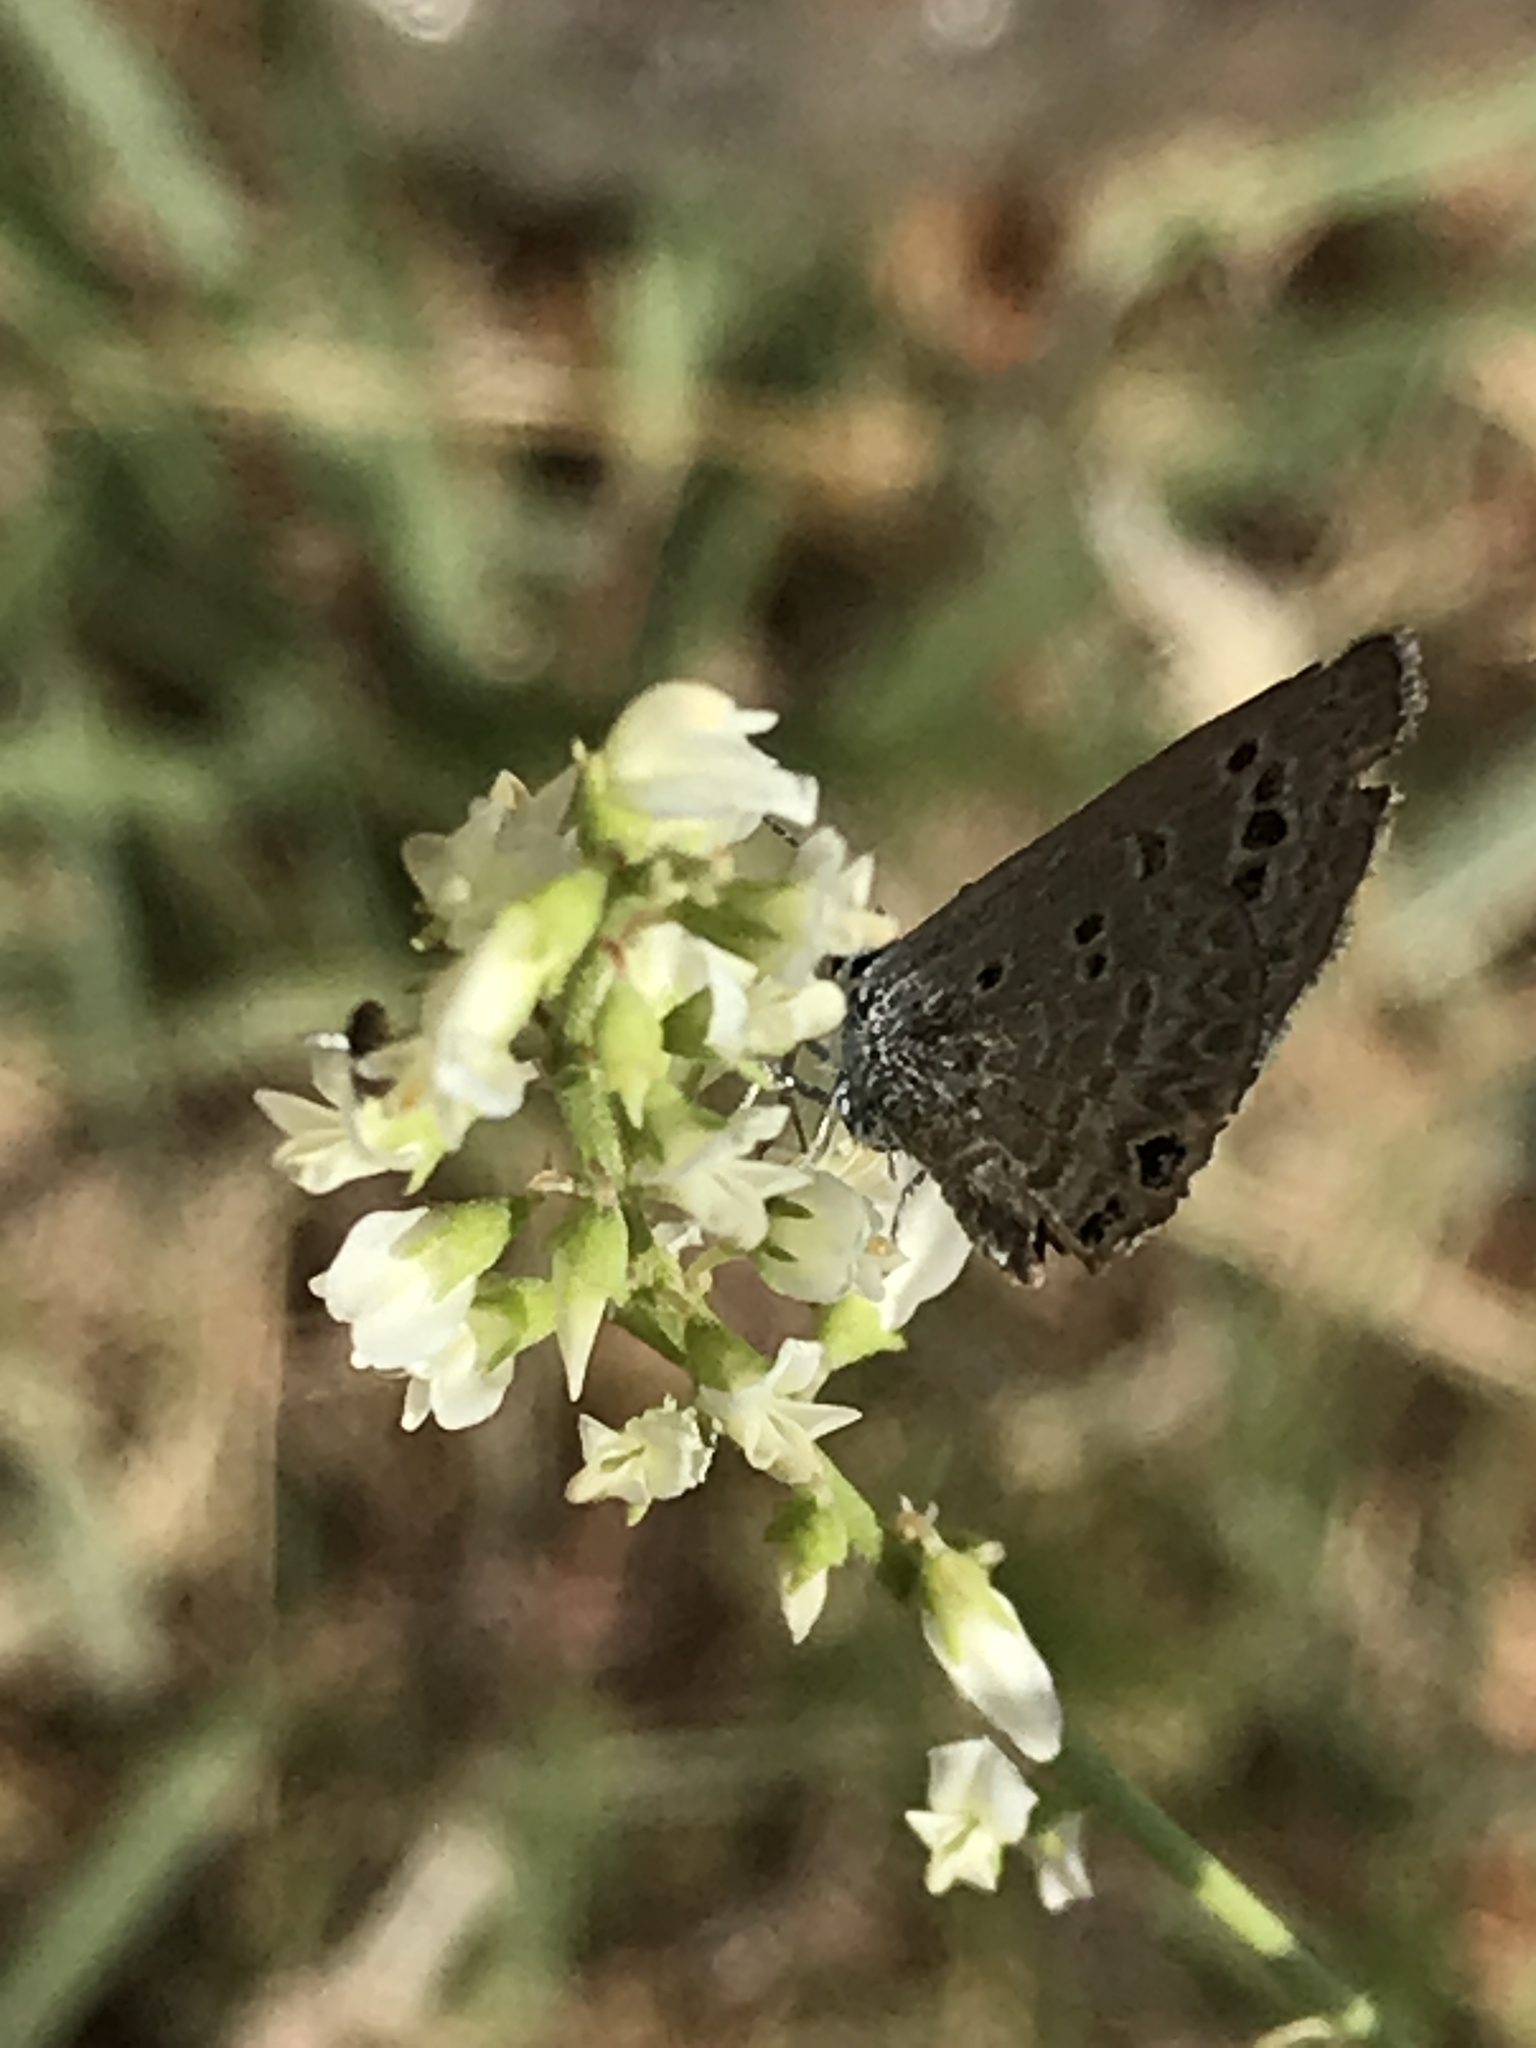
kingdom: Animalia
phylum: Arthropoda
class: Insecta
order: Lepidoptera
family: Lycaenidae
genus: Echinargus
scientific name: Echinargus isola
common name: Reakirt's blue
